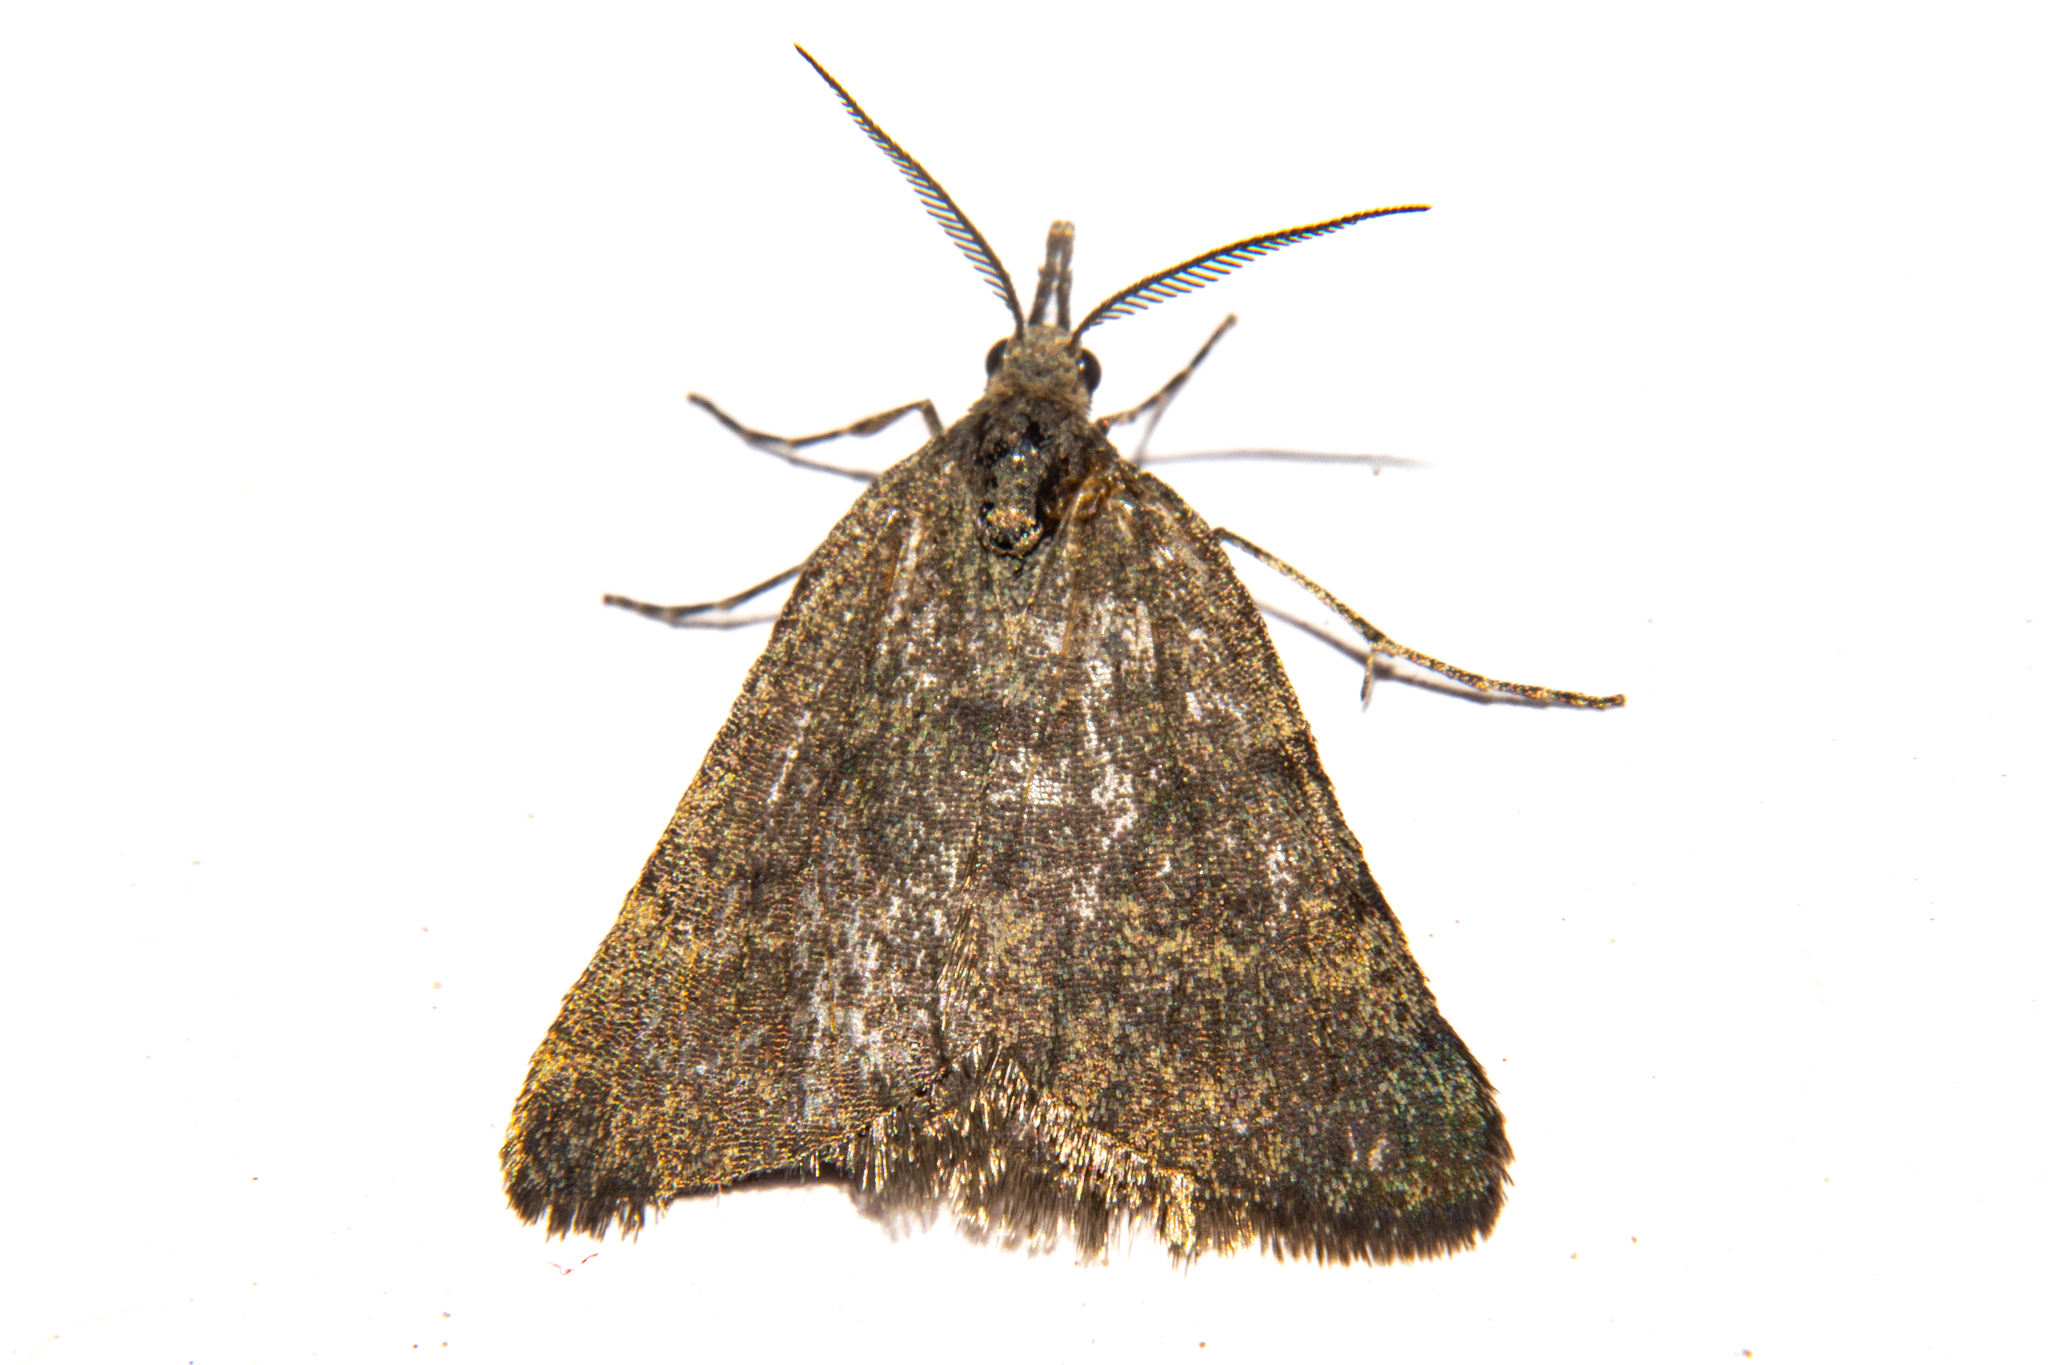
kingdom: Animalia
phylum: Arthropoda
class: Insecta
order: Lepidoptera
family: Geometridae
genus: Dichromodes
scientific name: Dichromodes sphaeriata
